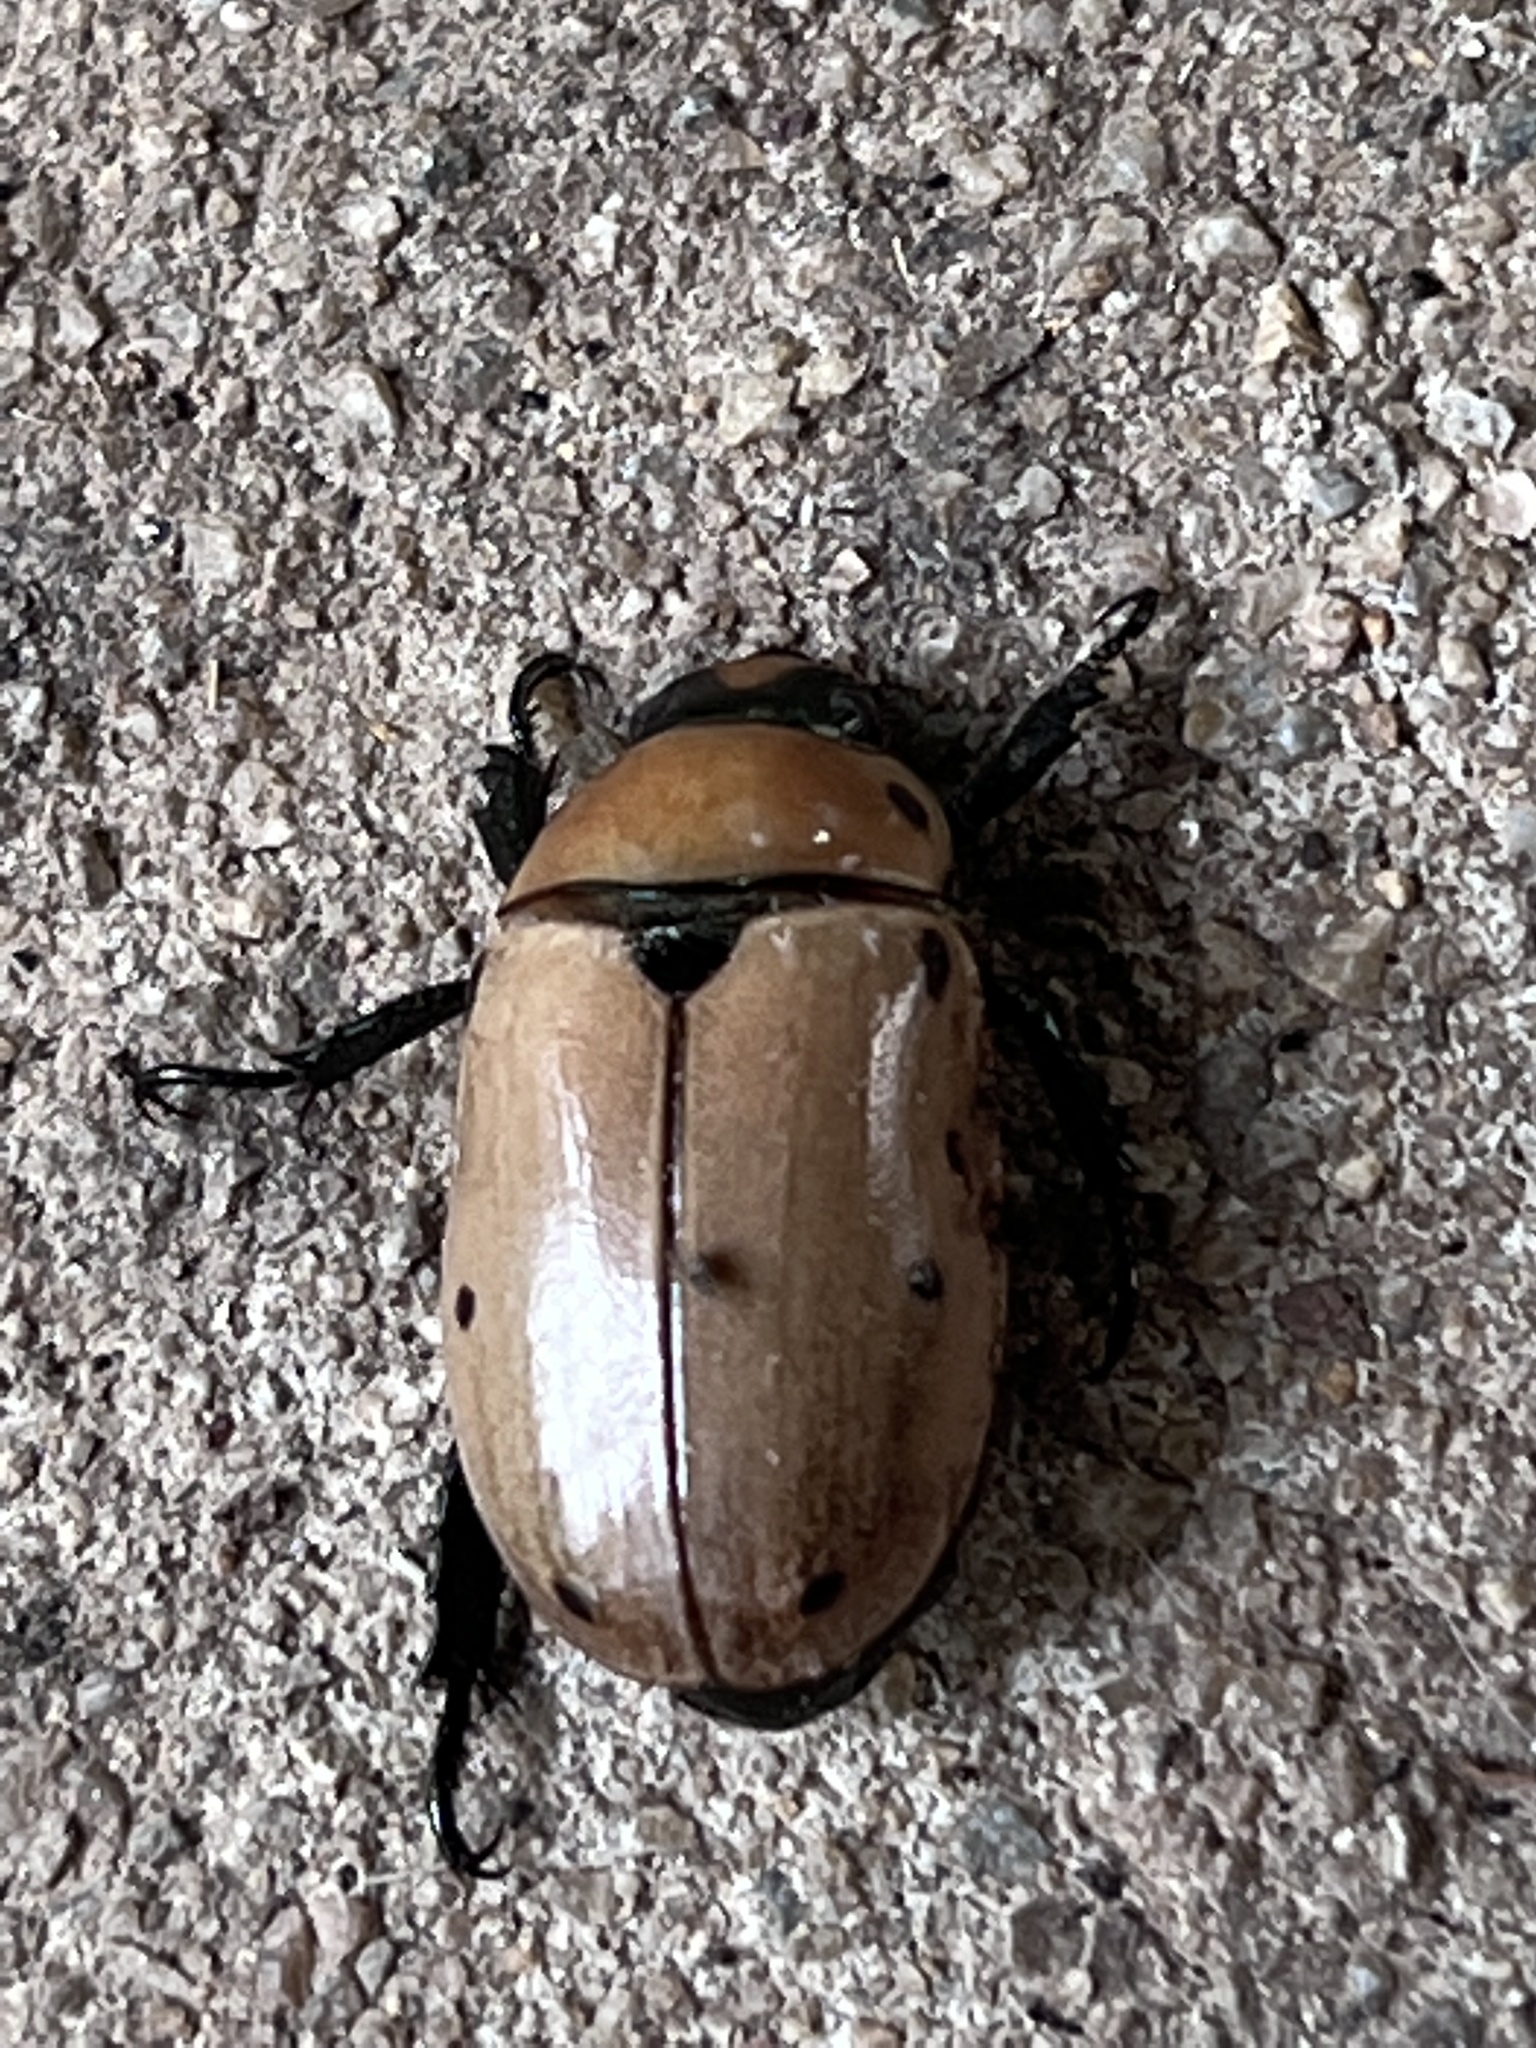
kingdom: Animalia
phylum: Arthropoda
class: Insecta
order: Coleoptera
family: Scarabaeidae
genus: Pelidnota
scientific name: Pelidnota punctata
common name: Grapevine beetle
